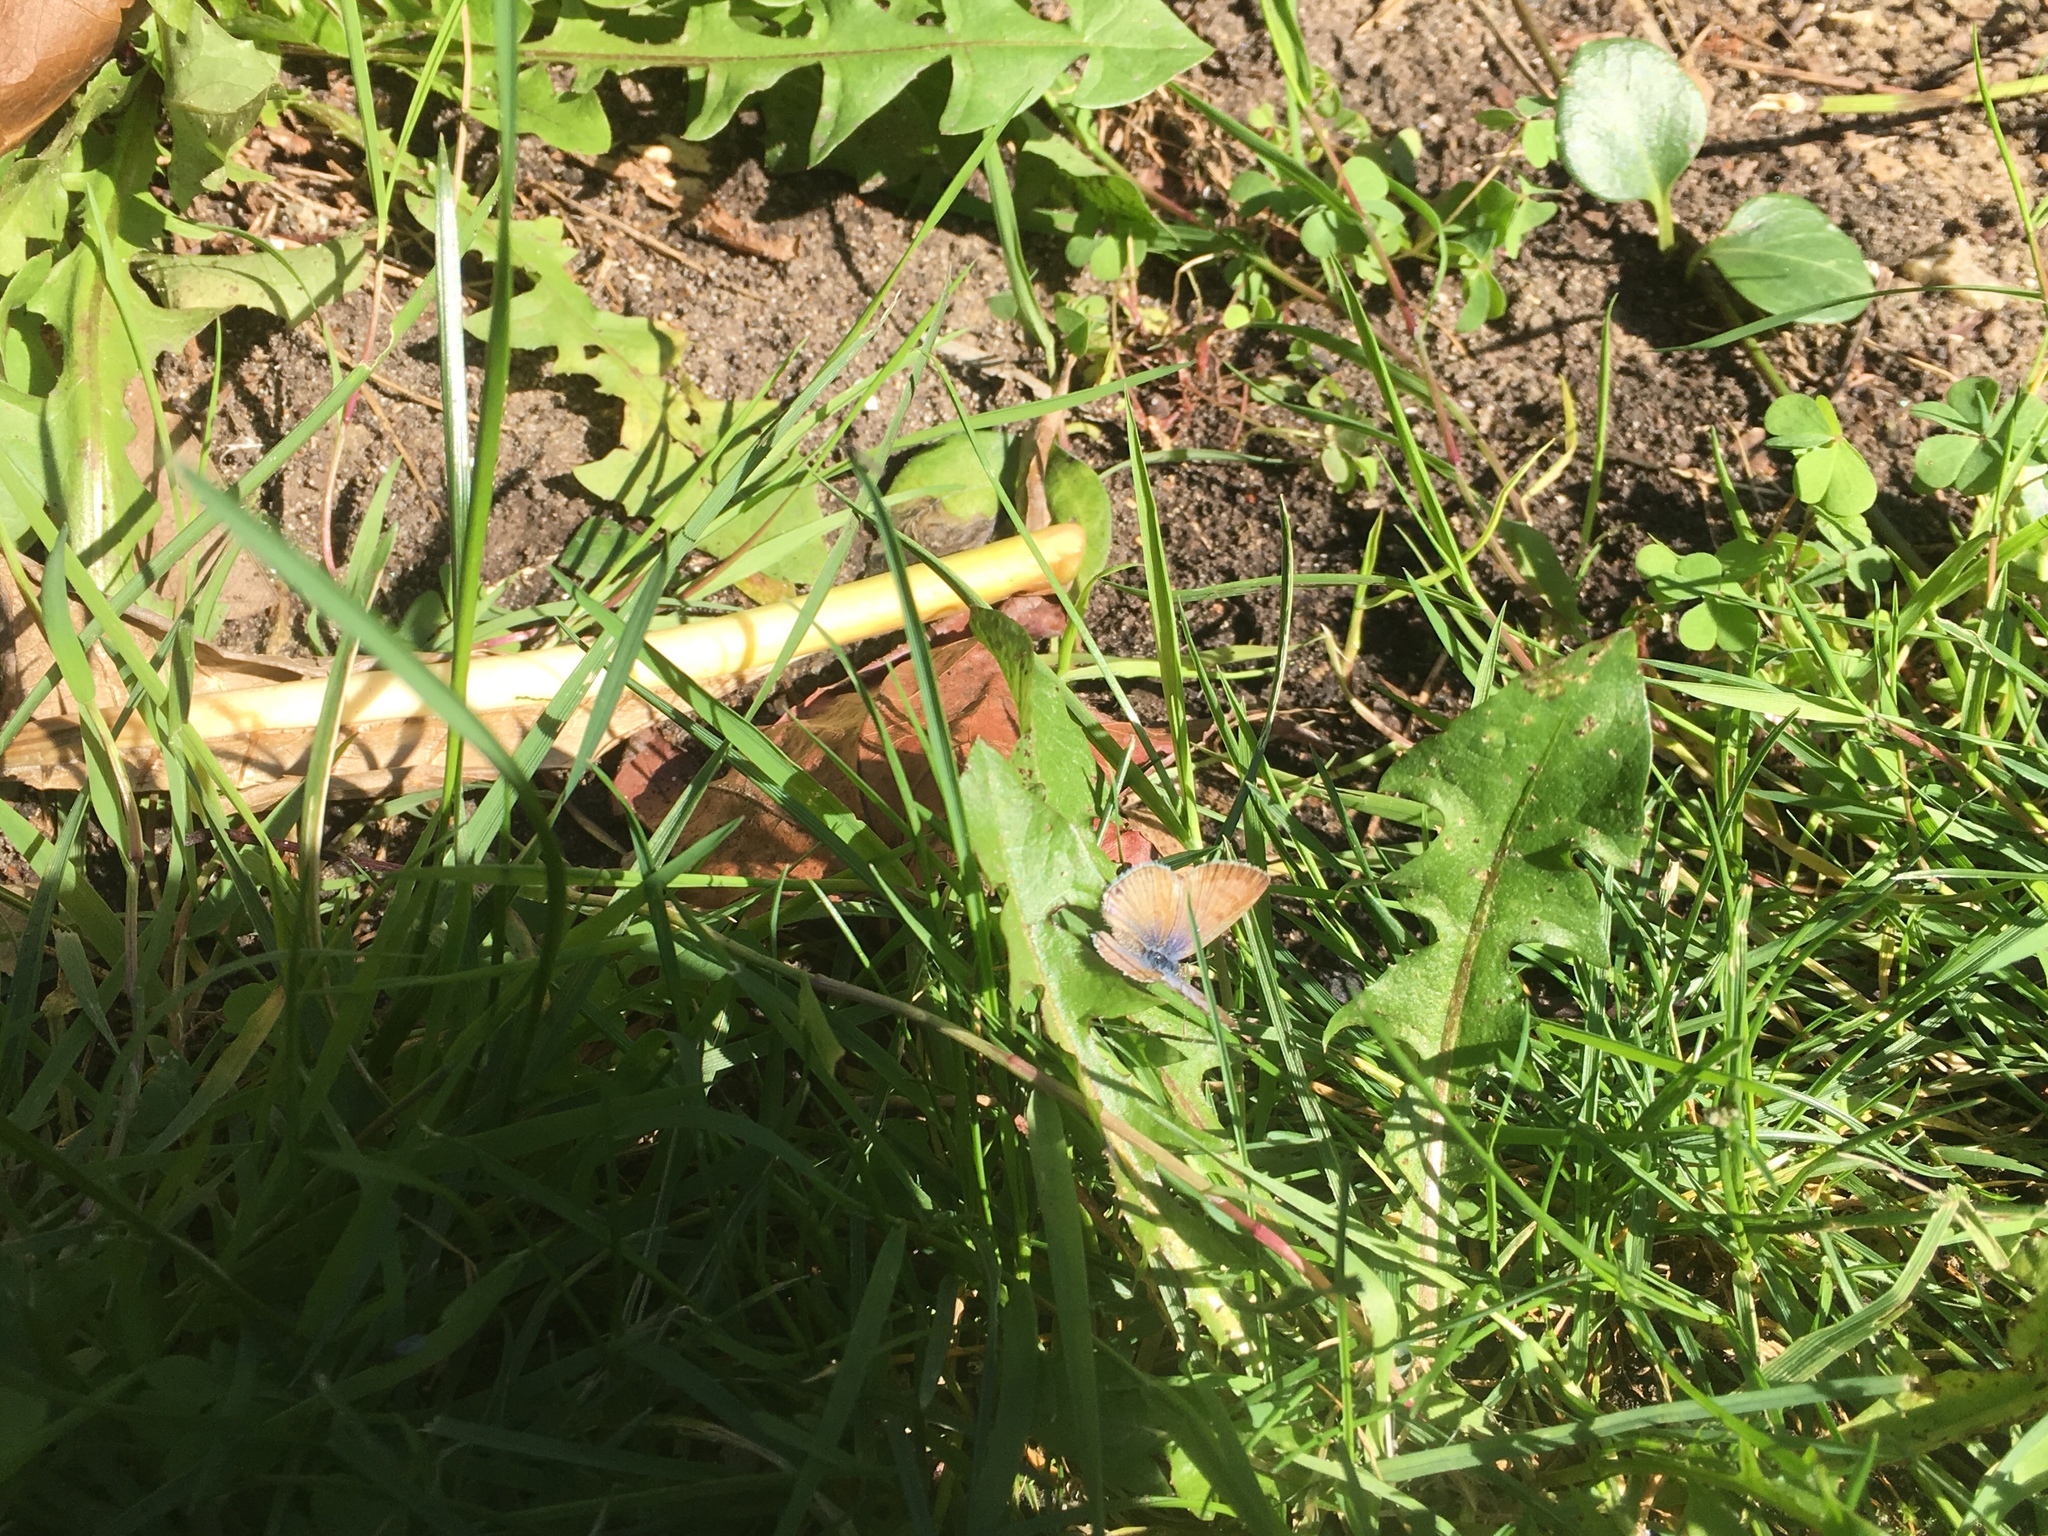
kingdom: Animalia
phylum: Arthropoda
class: Insecta
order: Lepidoptera
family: Lycaenidae
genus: Leptotes
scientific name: Leptotes marina
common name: Marine blue
